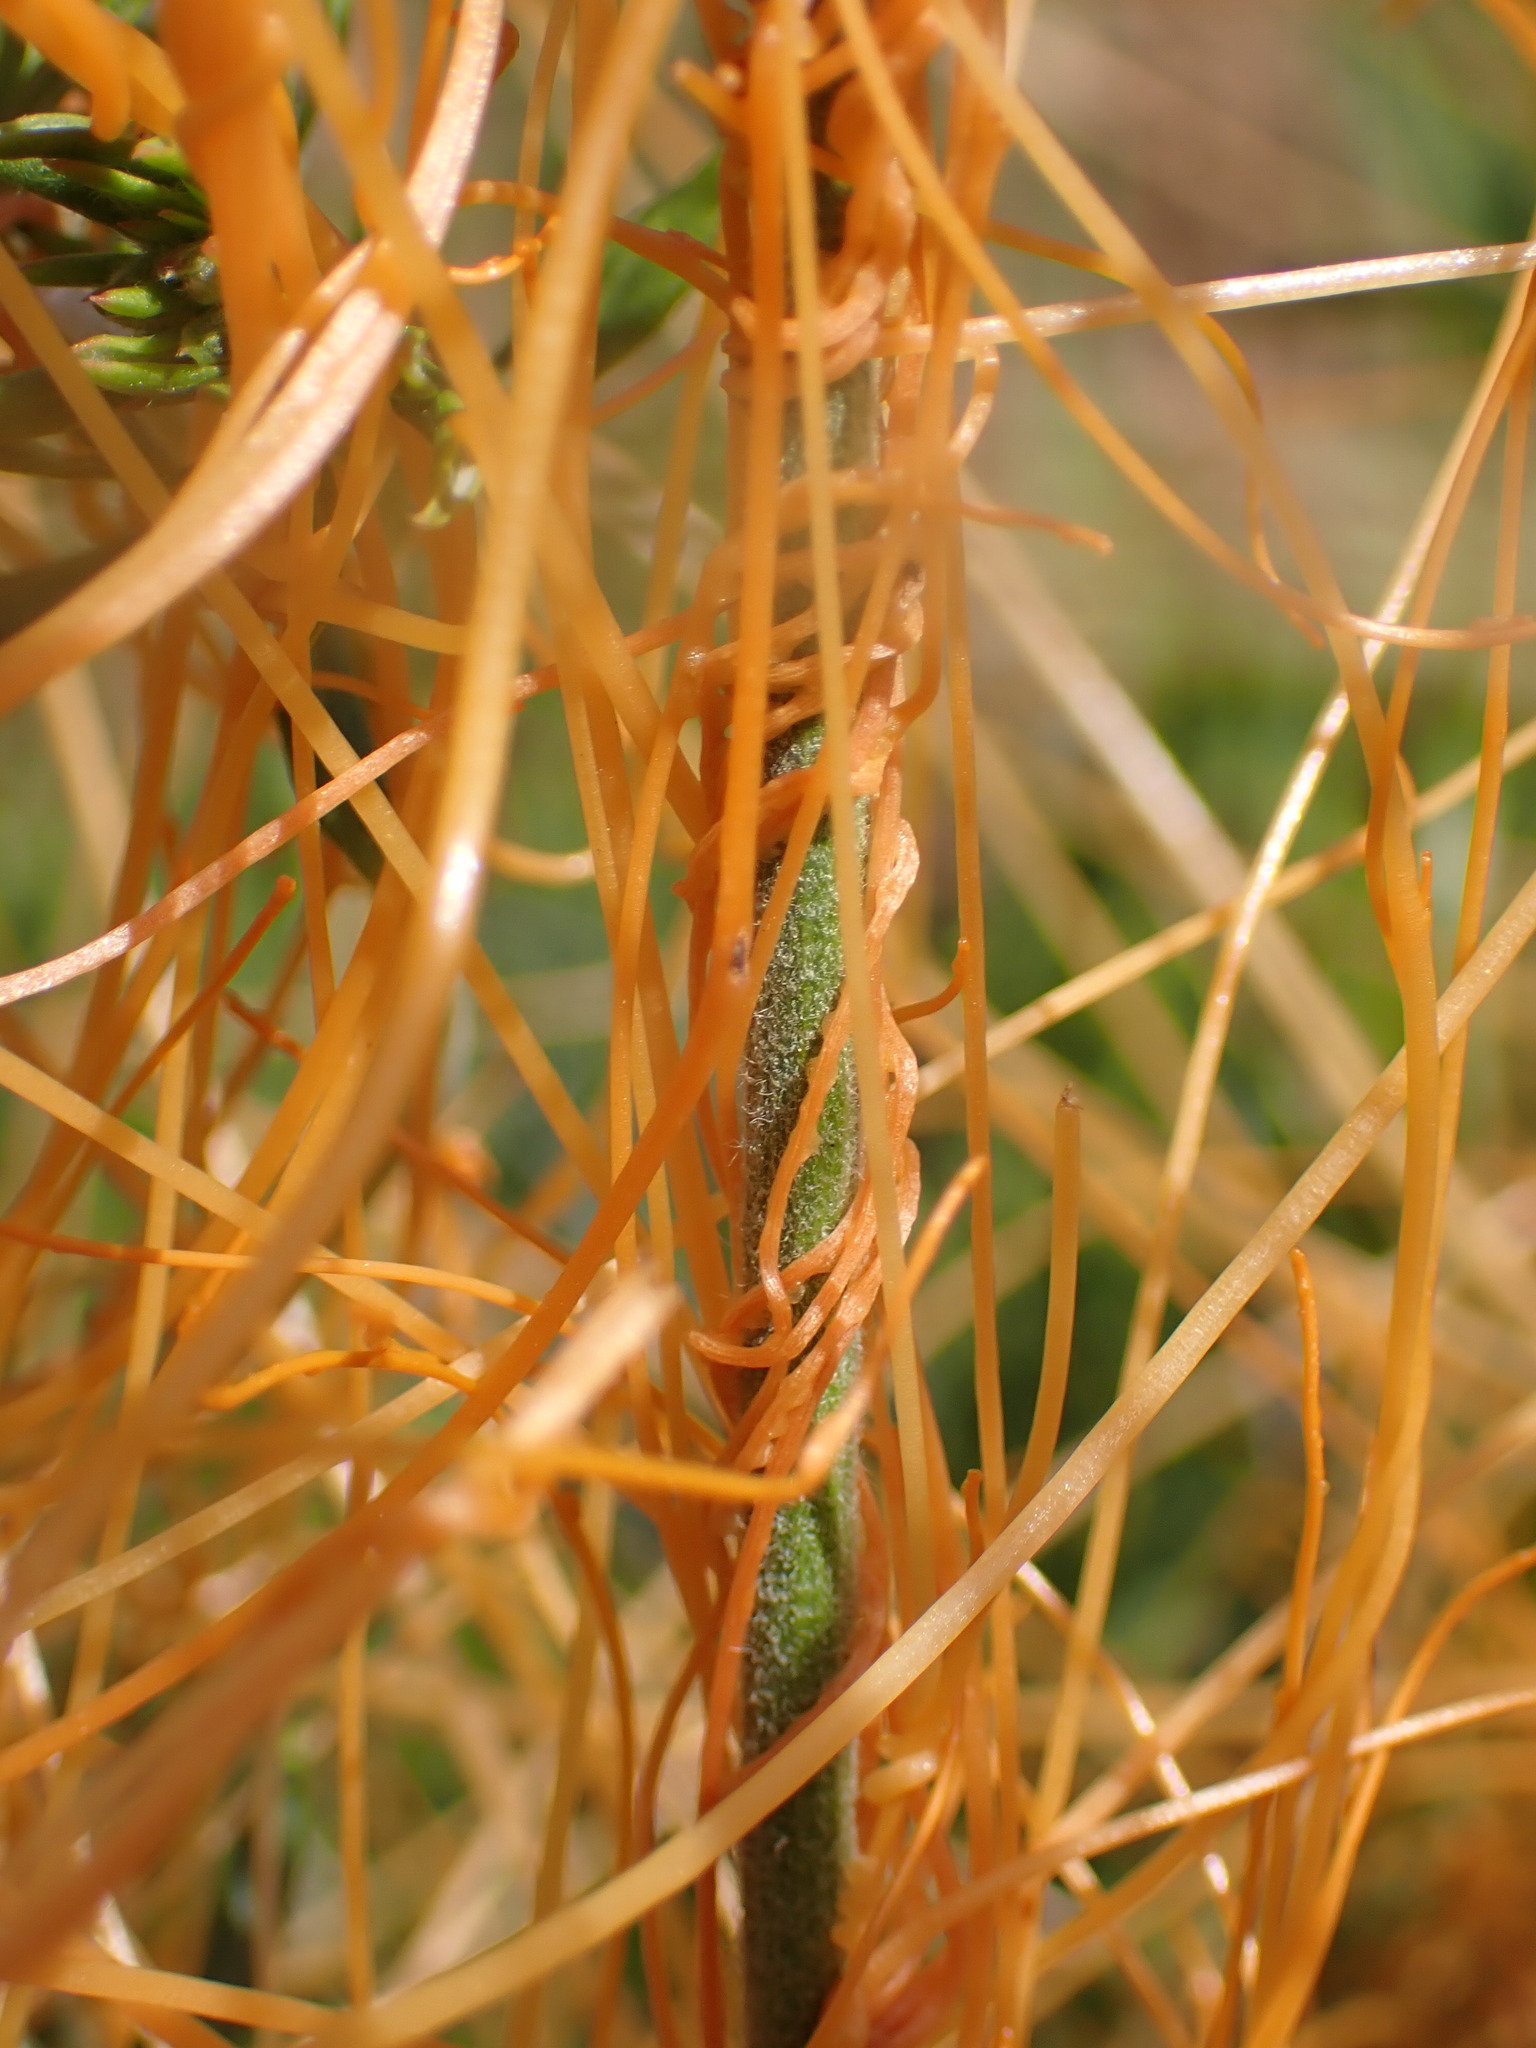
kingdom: Plantae
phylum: Tracheophyta
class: Magnoliopsida
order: Solanales
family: Convolvulaceae
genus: Cuscuta
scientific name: Cuscuta californica
